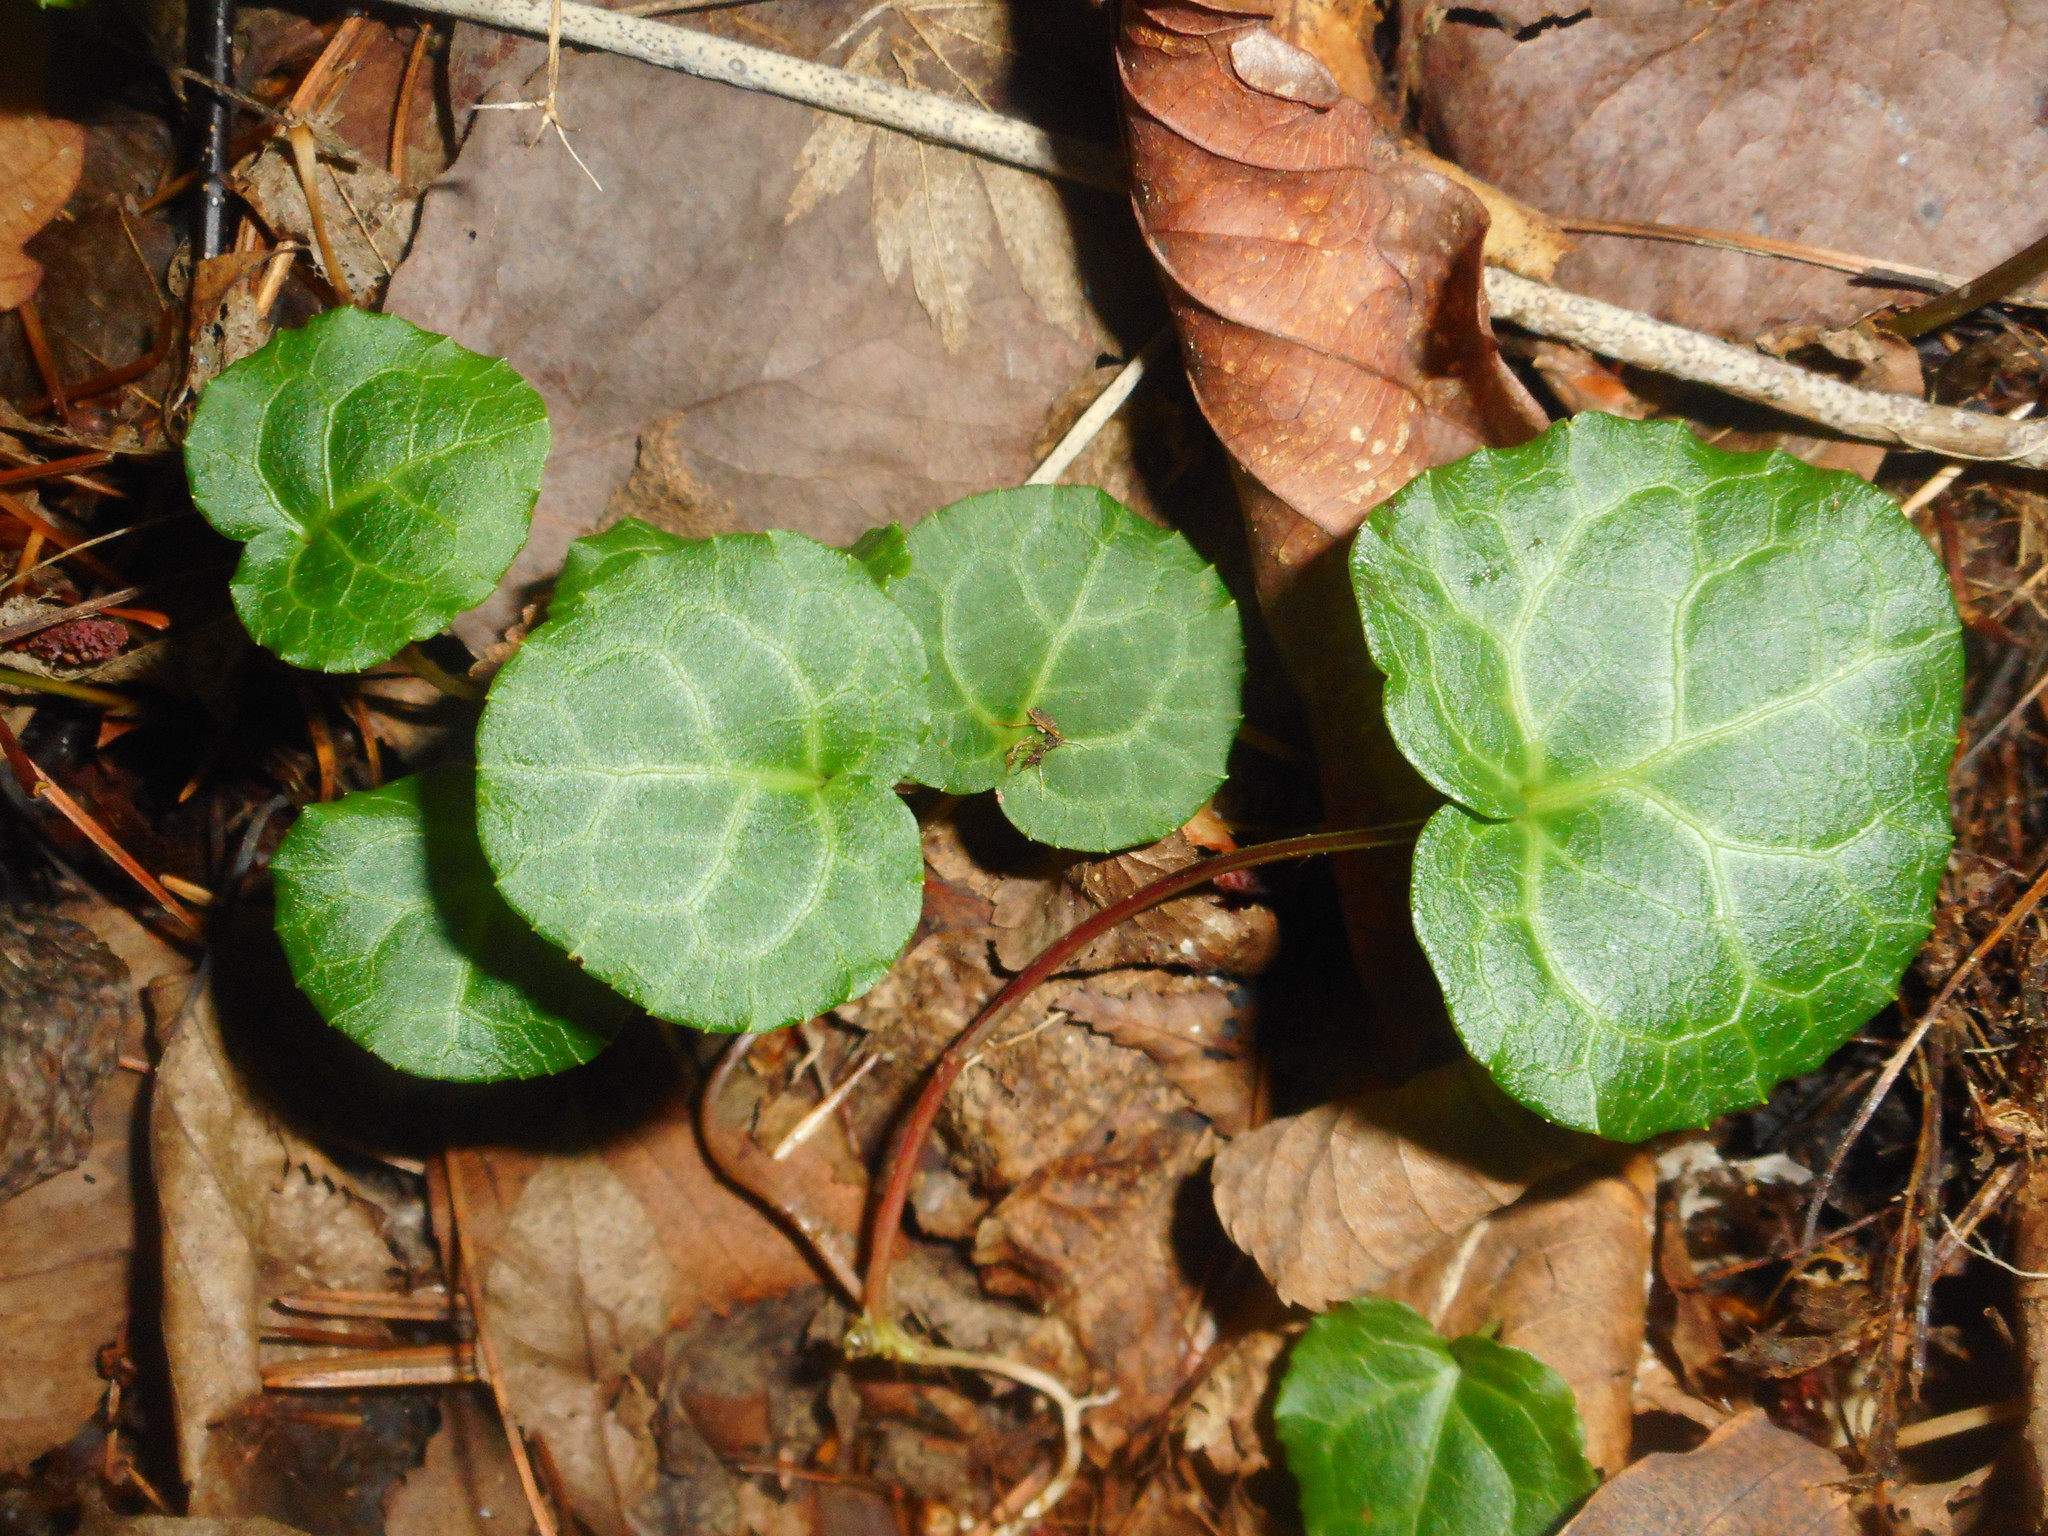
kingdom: Plantae
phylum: Tracheophyta
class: Magnoliopsida
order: Ericales
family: Ericaceae
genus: Pyrola
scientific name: Pyrola renifolia
